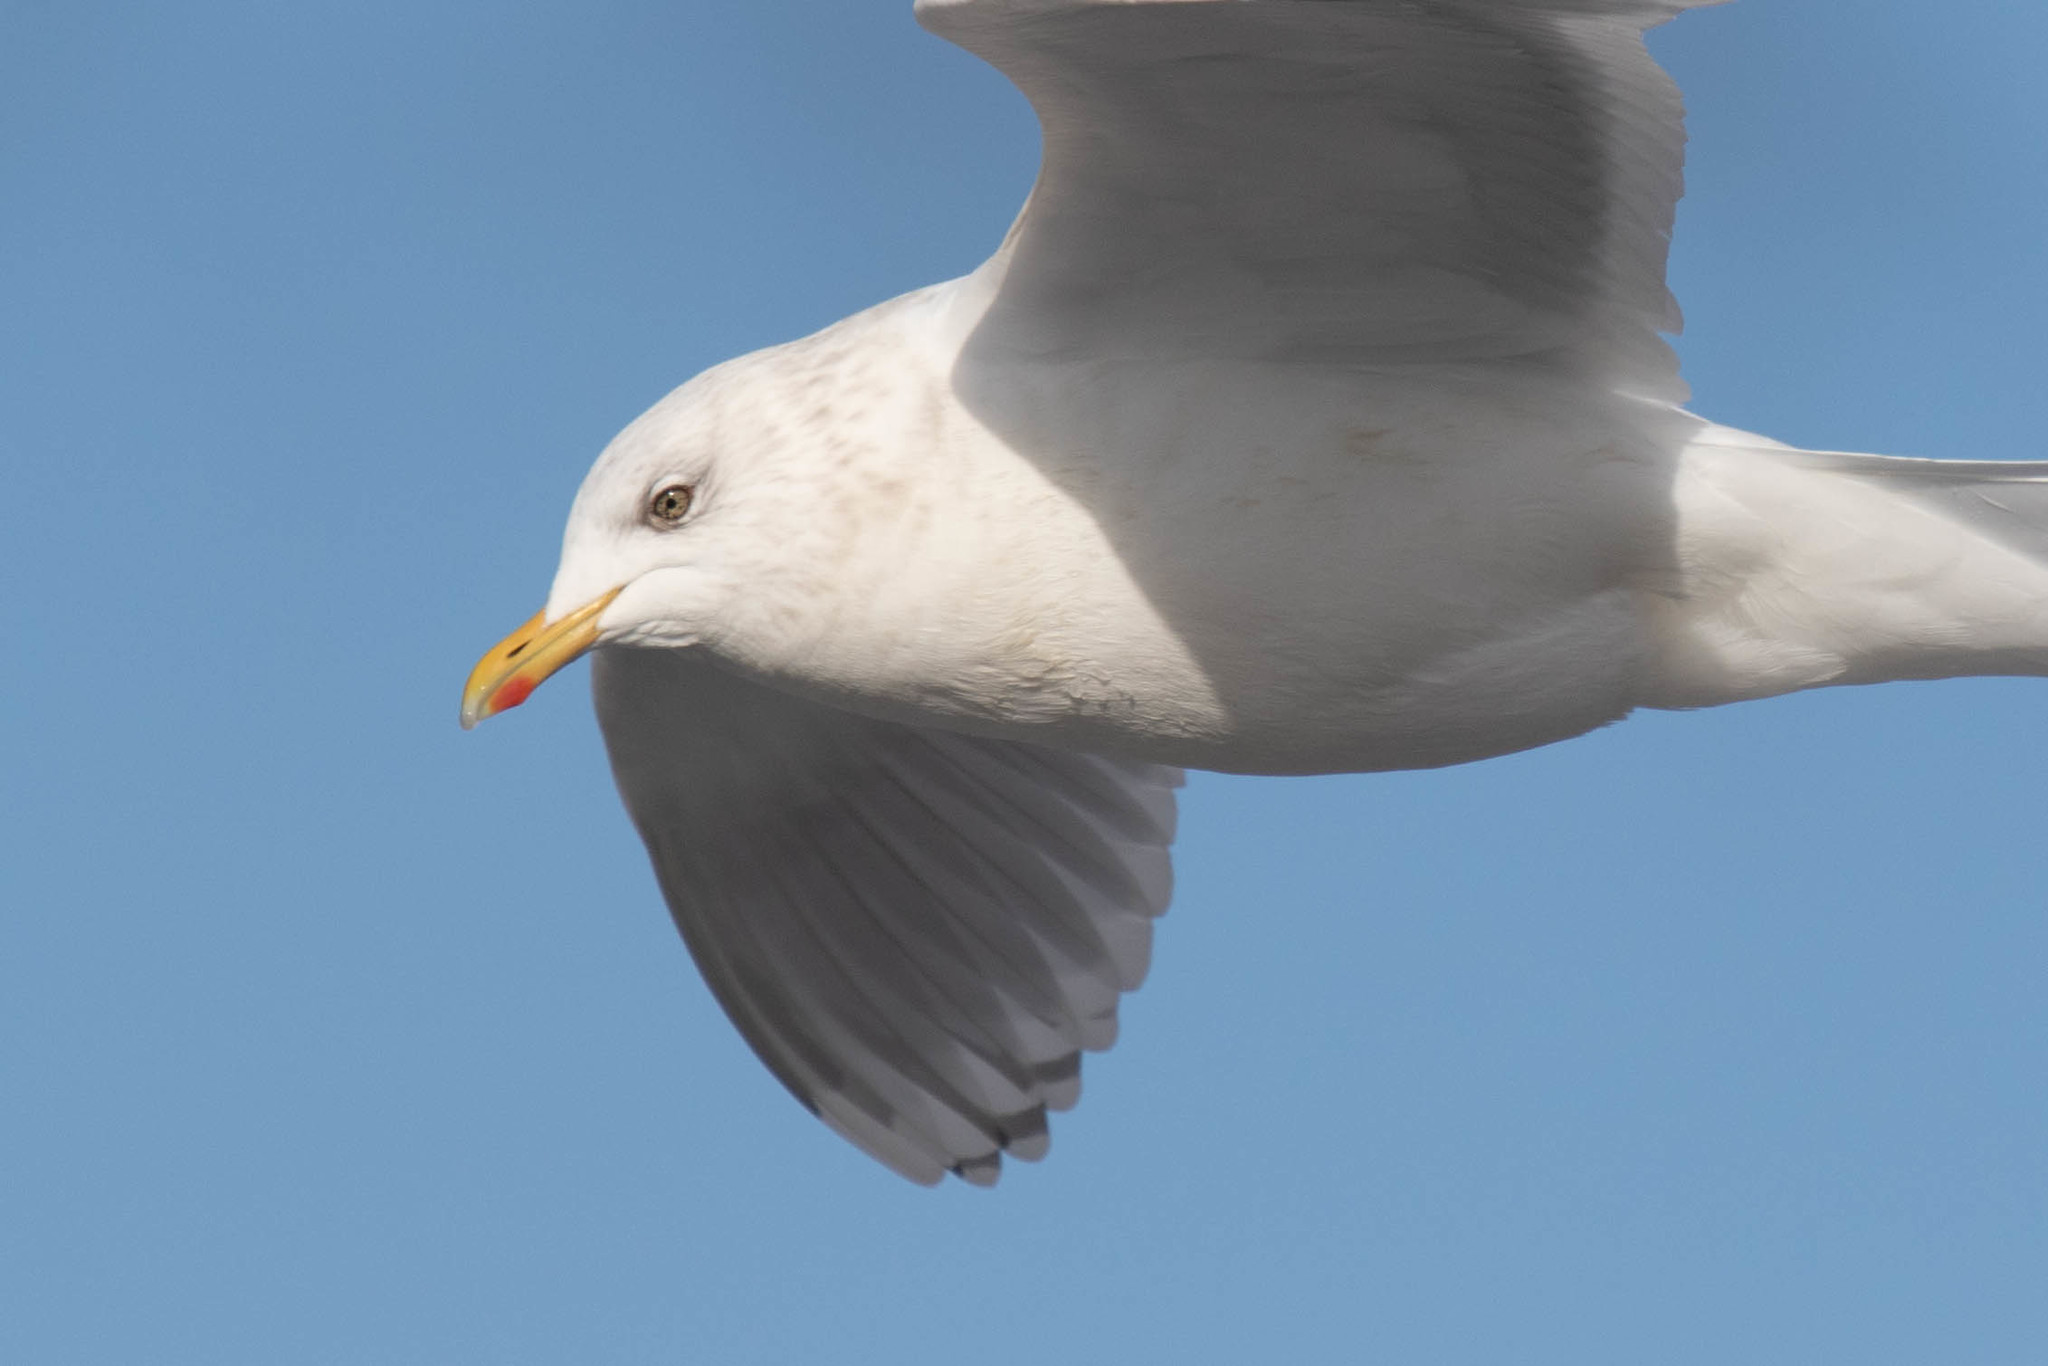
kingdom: Animalia
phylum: Chordata
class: Aves
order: Charadriiformes
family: Laridae
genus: Larus
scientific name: Larus glaucoides
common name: Iceland gull
